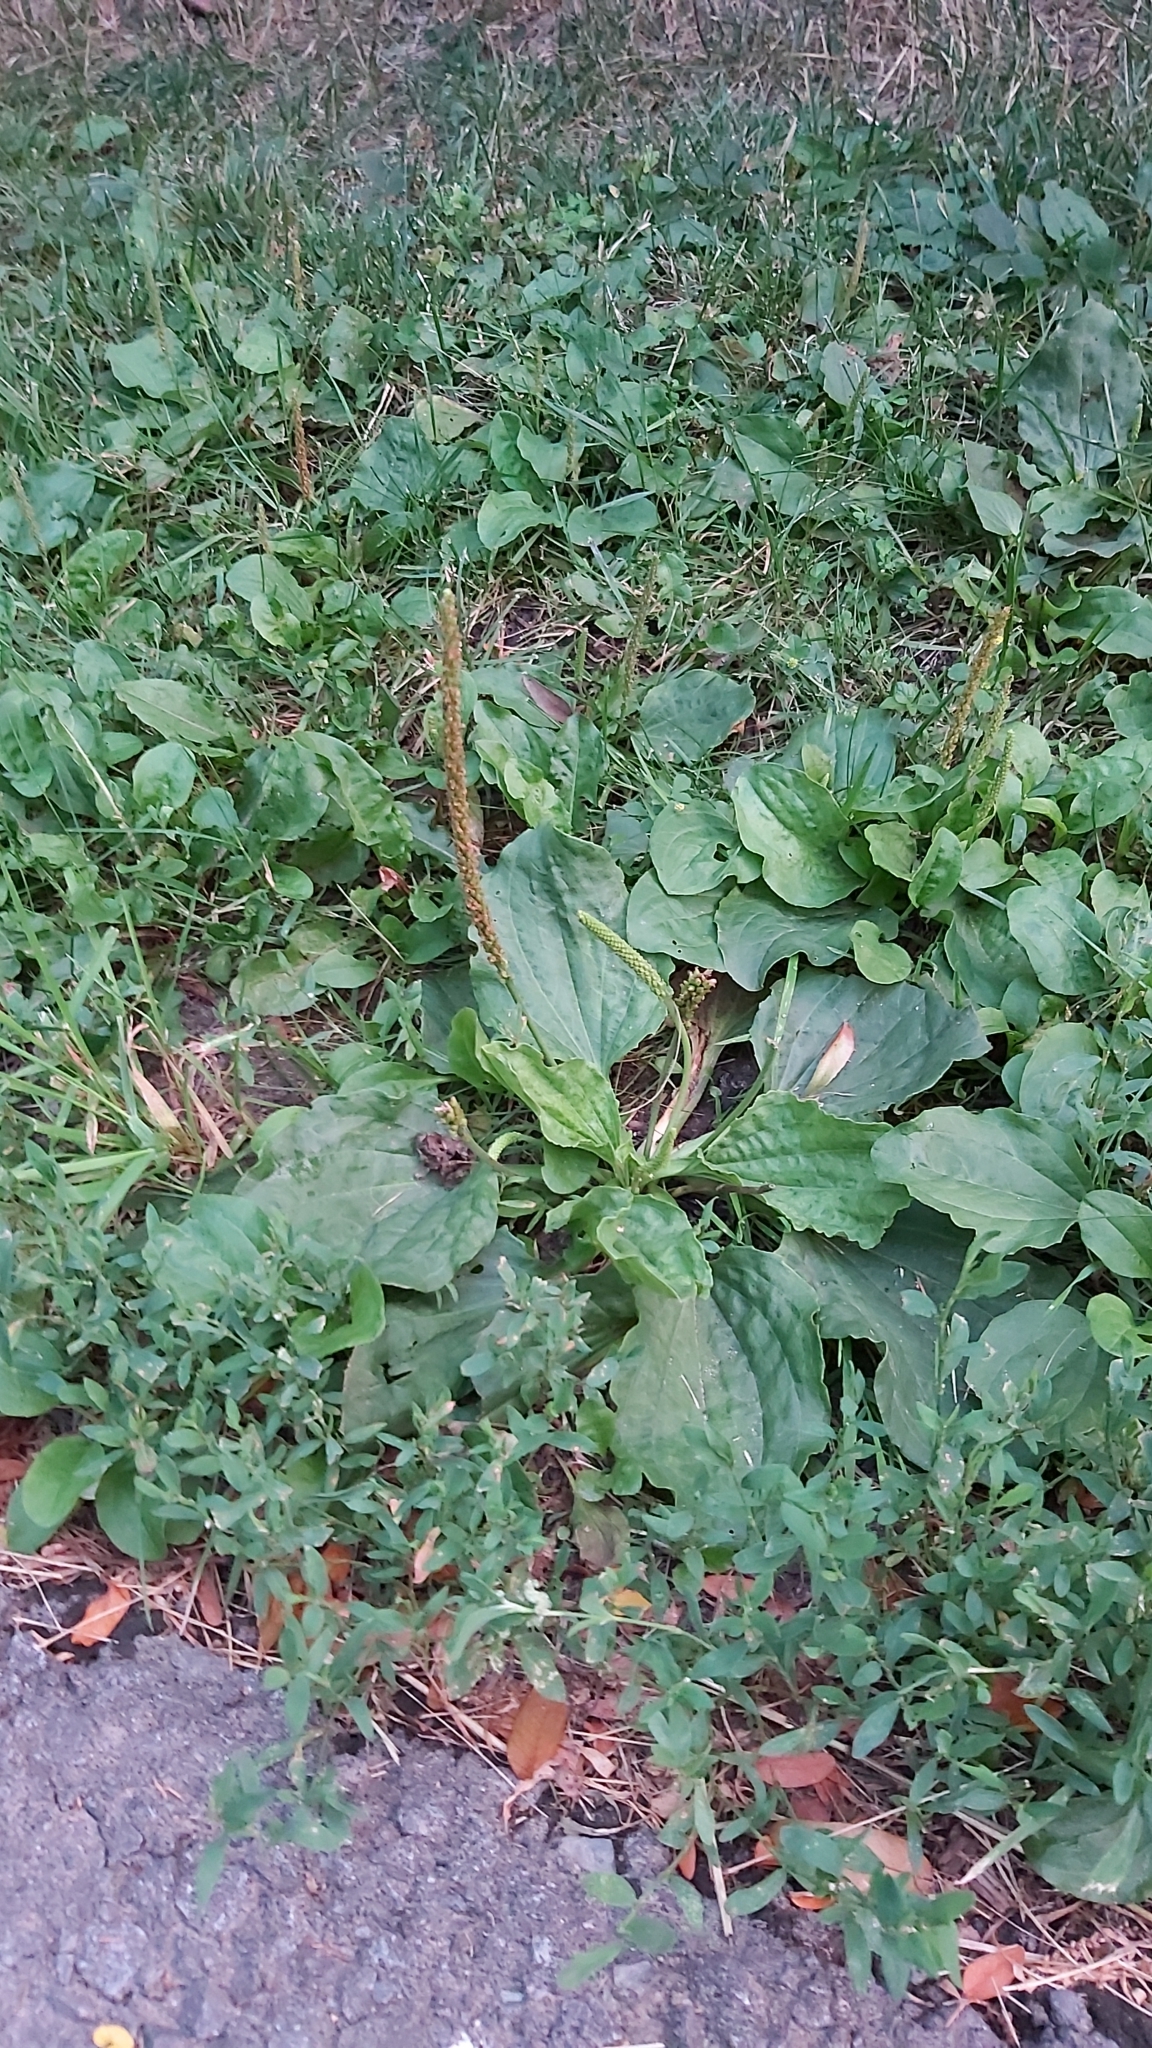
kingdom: Plantae
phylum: Tracheophyta
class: Magnoliopsida
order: Lamiales
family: Plantaginaceae
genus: Plantago
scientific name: Plantago major
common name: Common plantain
